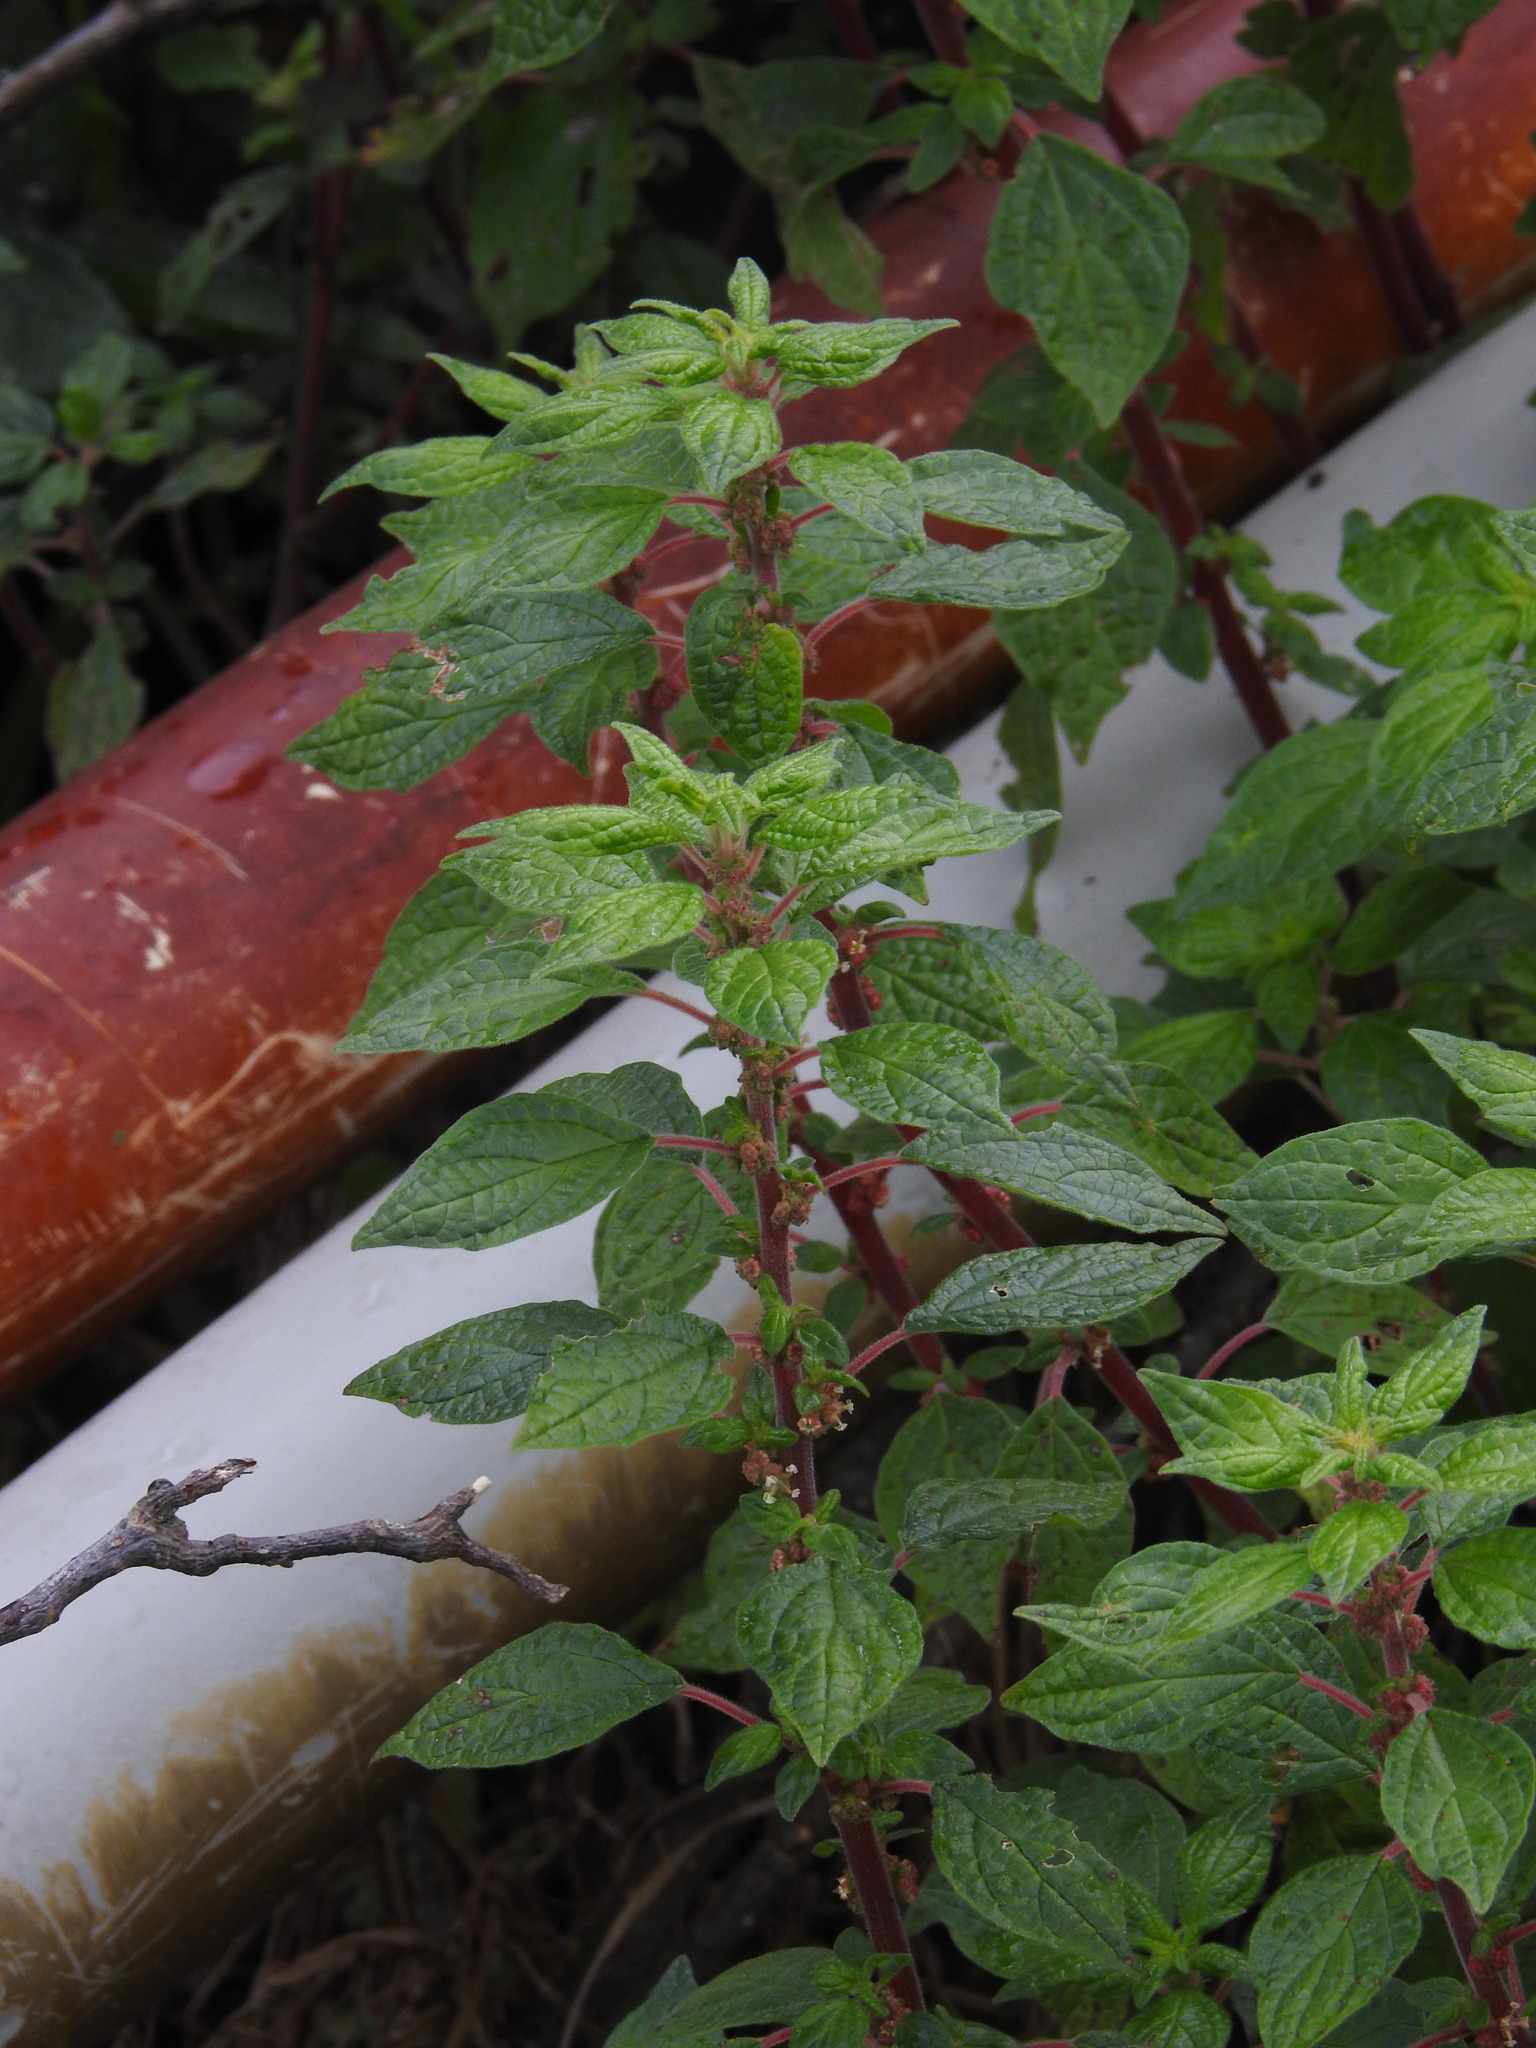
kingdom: Plantae
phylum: Tracheophyta
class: Magnoliopsida
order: Rosales
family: Urticaceae
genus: Parietaria
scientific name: Parietaria judaica
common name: Pellitory-of-the-wall
